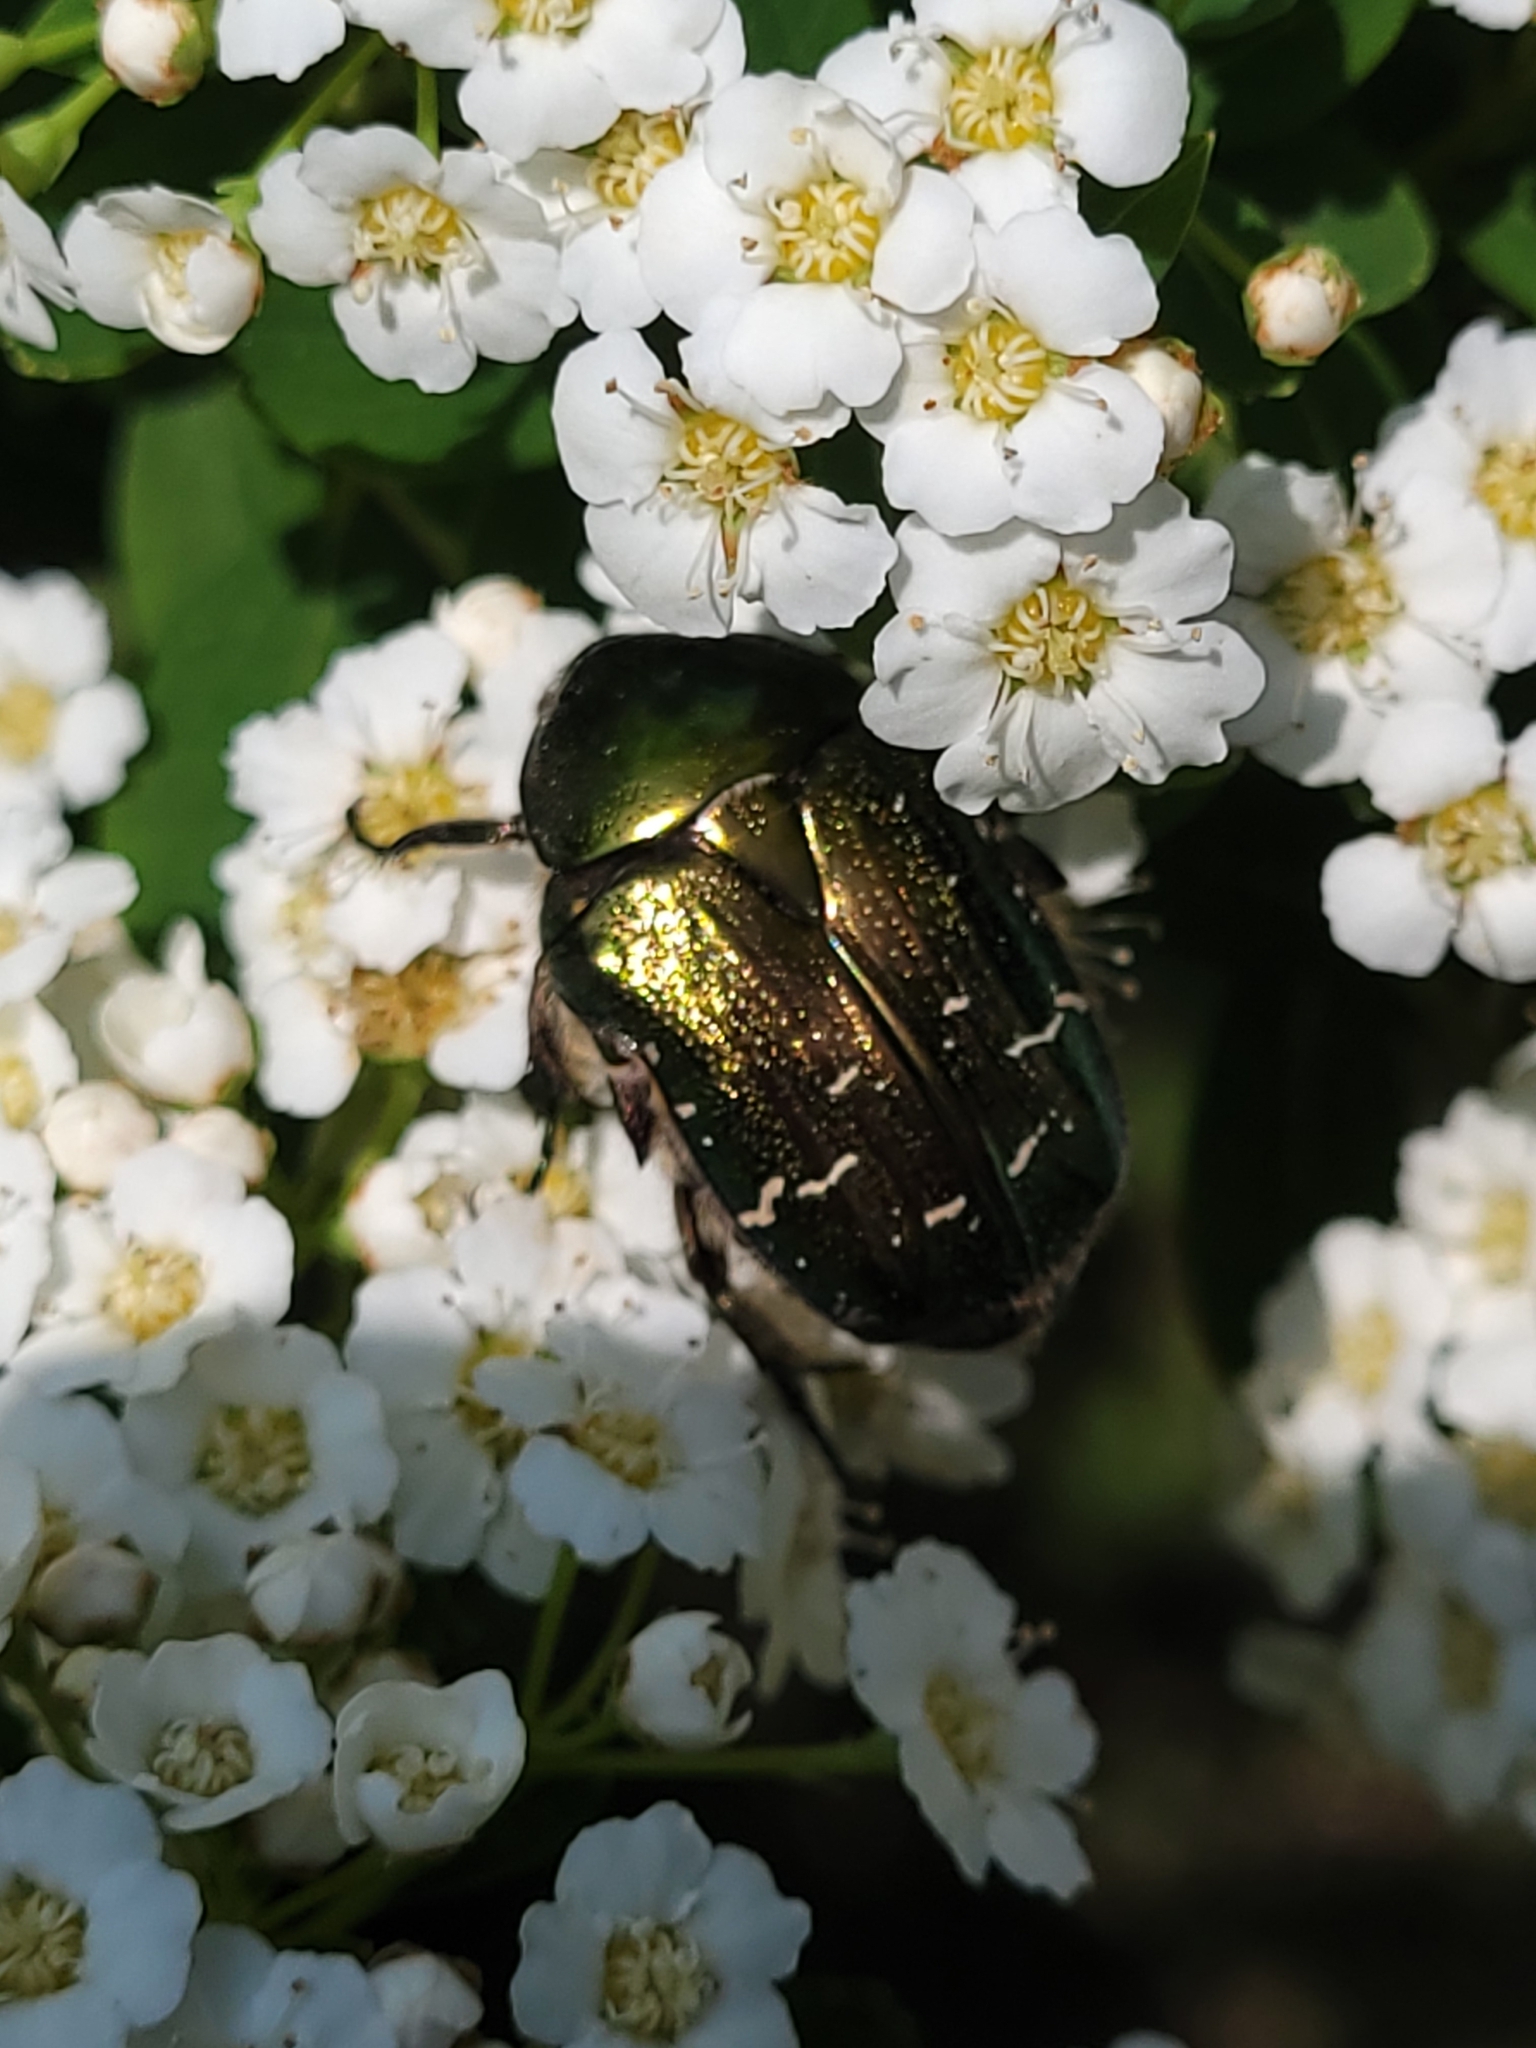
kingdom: Animalia
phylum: Arthropoda
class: Insecta
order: Coleoptera
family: Scarabaeidae
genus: Cetonia
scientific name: Cetonia aurata
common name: Rose chafer
